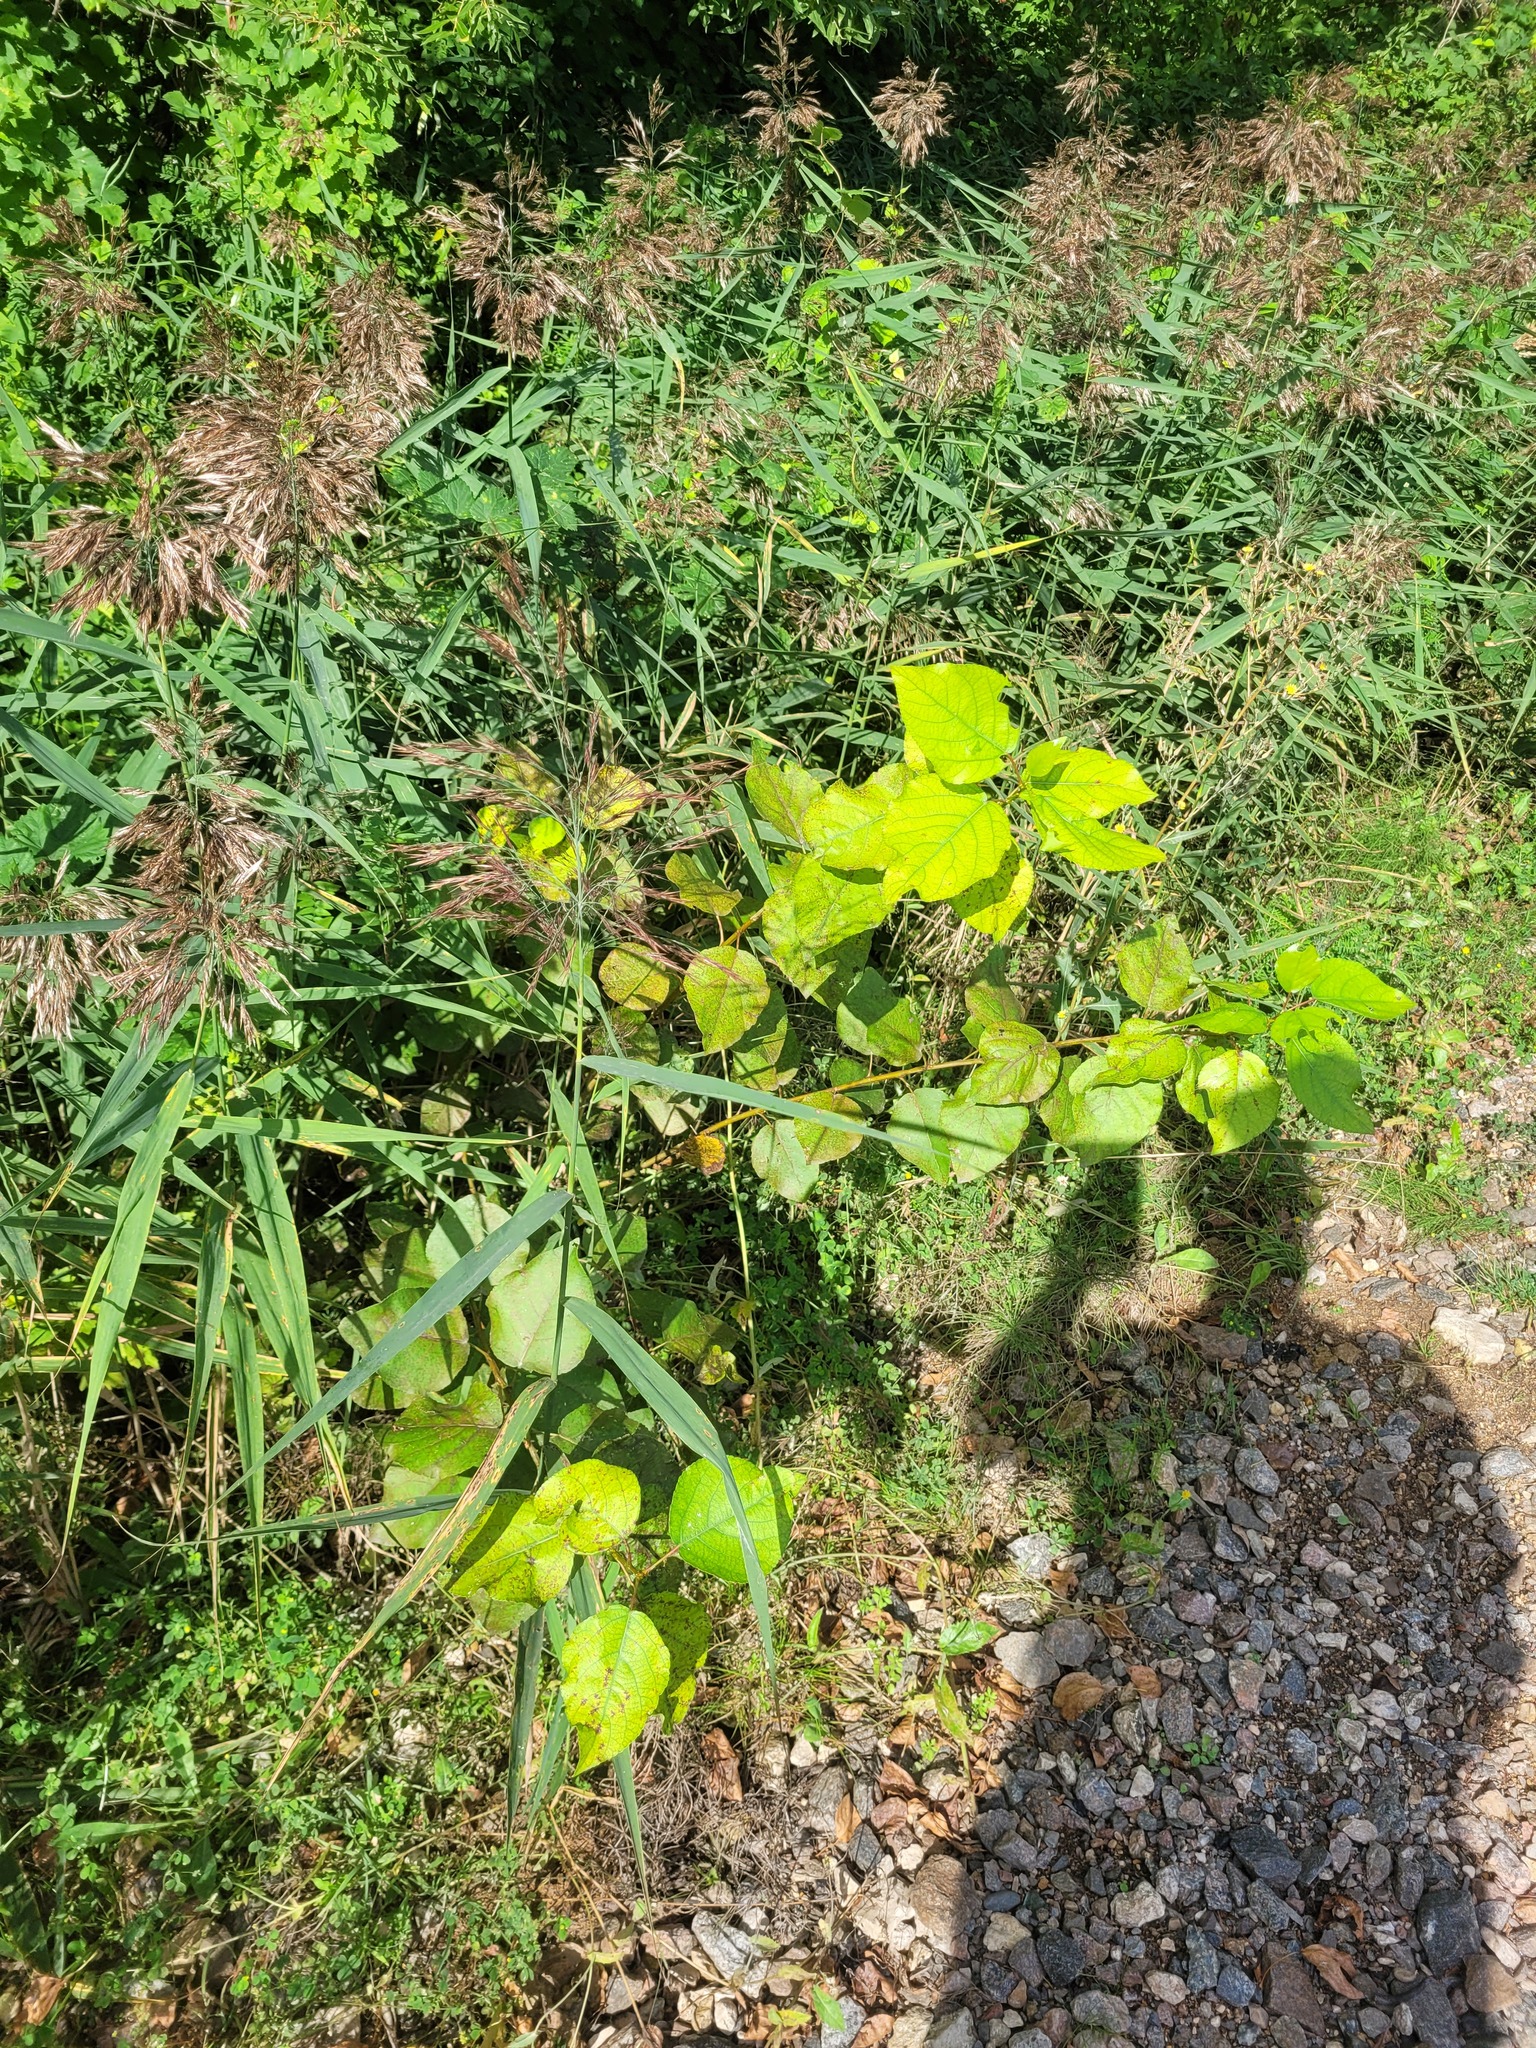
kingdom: Plantae
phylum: Tracheophyta
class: Magnoliopsida
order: Malpighiales
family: Salicaceae
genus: Populus
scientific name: Populus tremula
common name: European aspen
